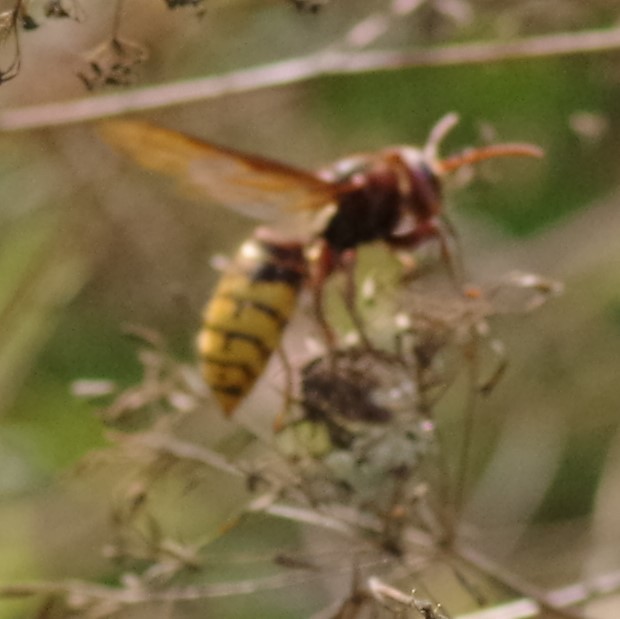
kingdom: Animalia
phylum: Arthropoda
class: Insecta
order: Hymenoptera
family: Vespidae
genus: Vespa
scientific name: Vespa crabro
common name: Hornet
